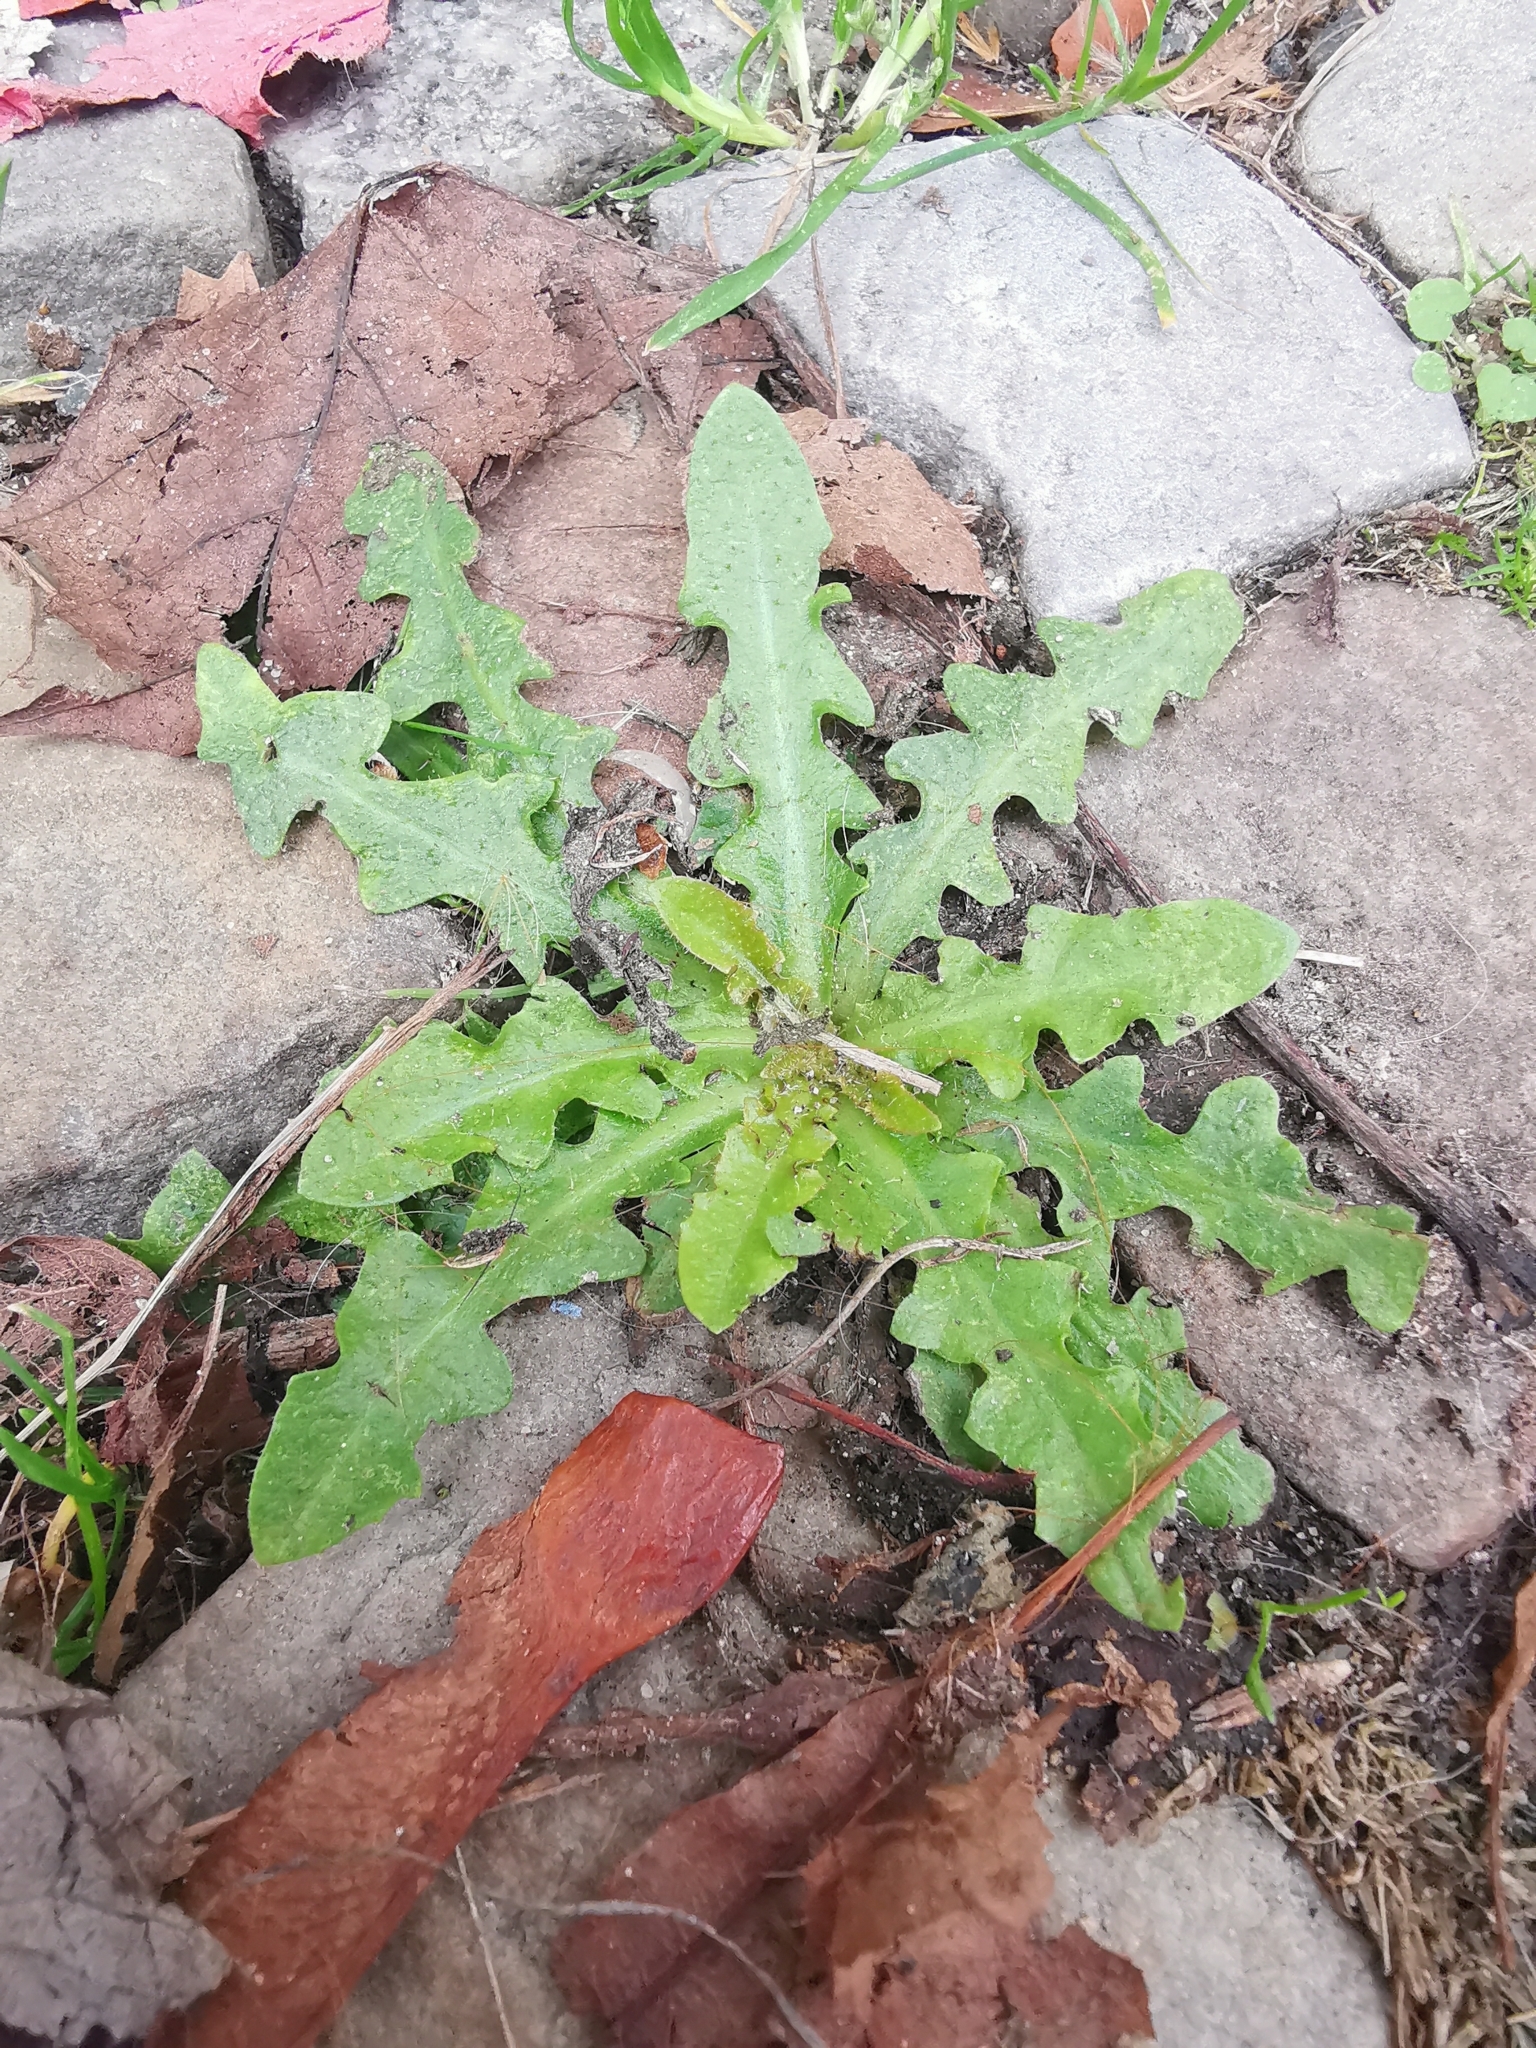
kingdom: Plantae
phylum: Tracheophyta
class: Magnoliopsida
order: Asterales
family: Asteraceae
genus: Hypochaeris
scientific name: Hypochaeris radicata
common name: Flatweed
